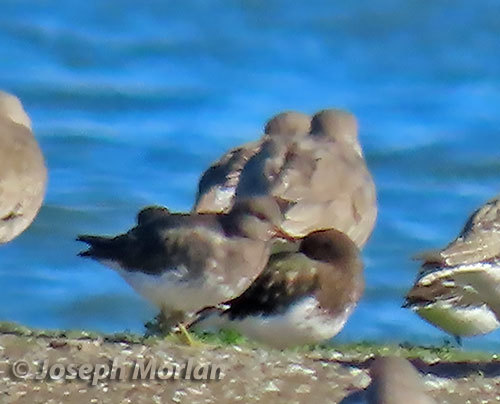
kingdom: Animalia
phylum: Chordata
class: Aves
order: Charadriiformes
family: Scolopacidae
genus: Calidris
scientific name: Calidris virgata
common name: Surfbird
